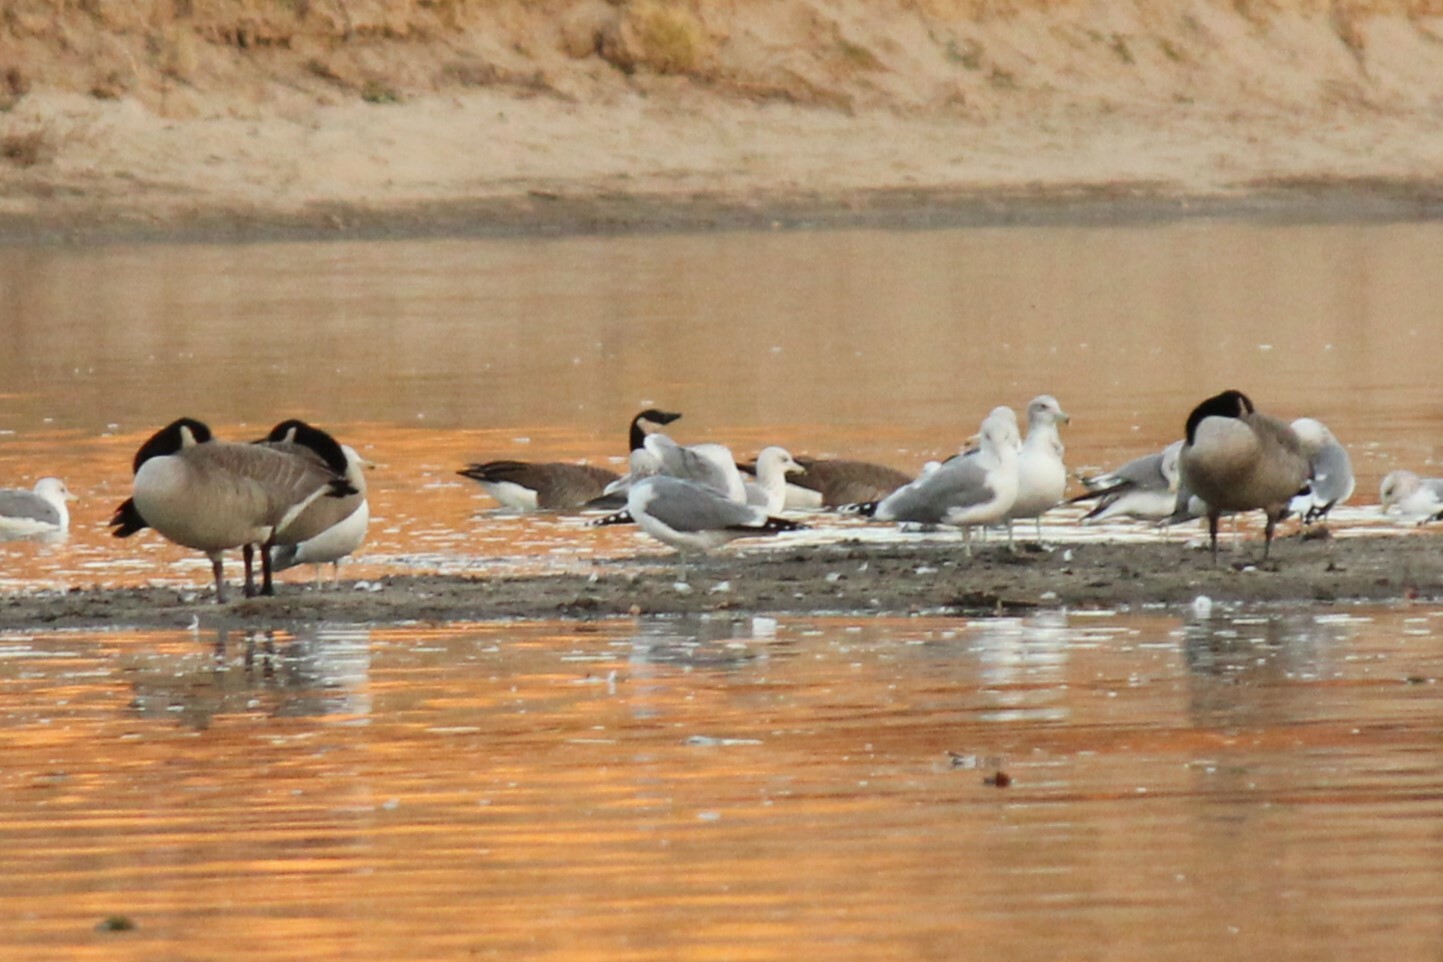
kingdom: Animalia
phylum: Chordata
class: Aves
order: Charadriiformes
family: Laridae
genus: Larus
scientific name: Larus californicus
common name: California gull
